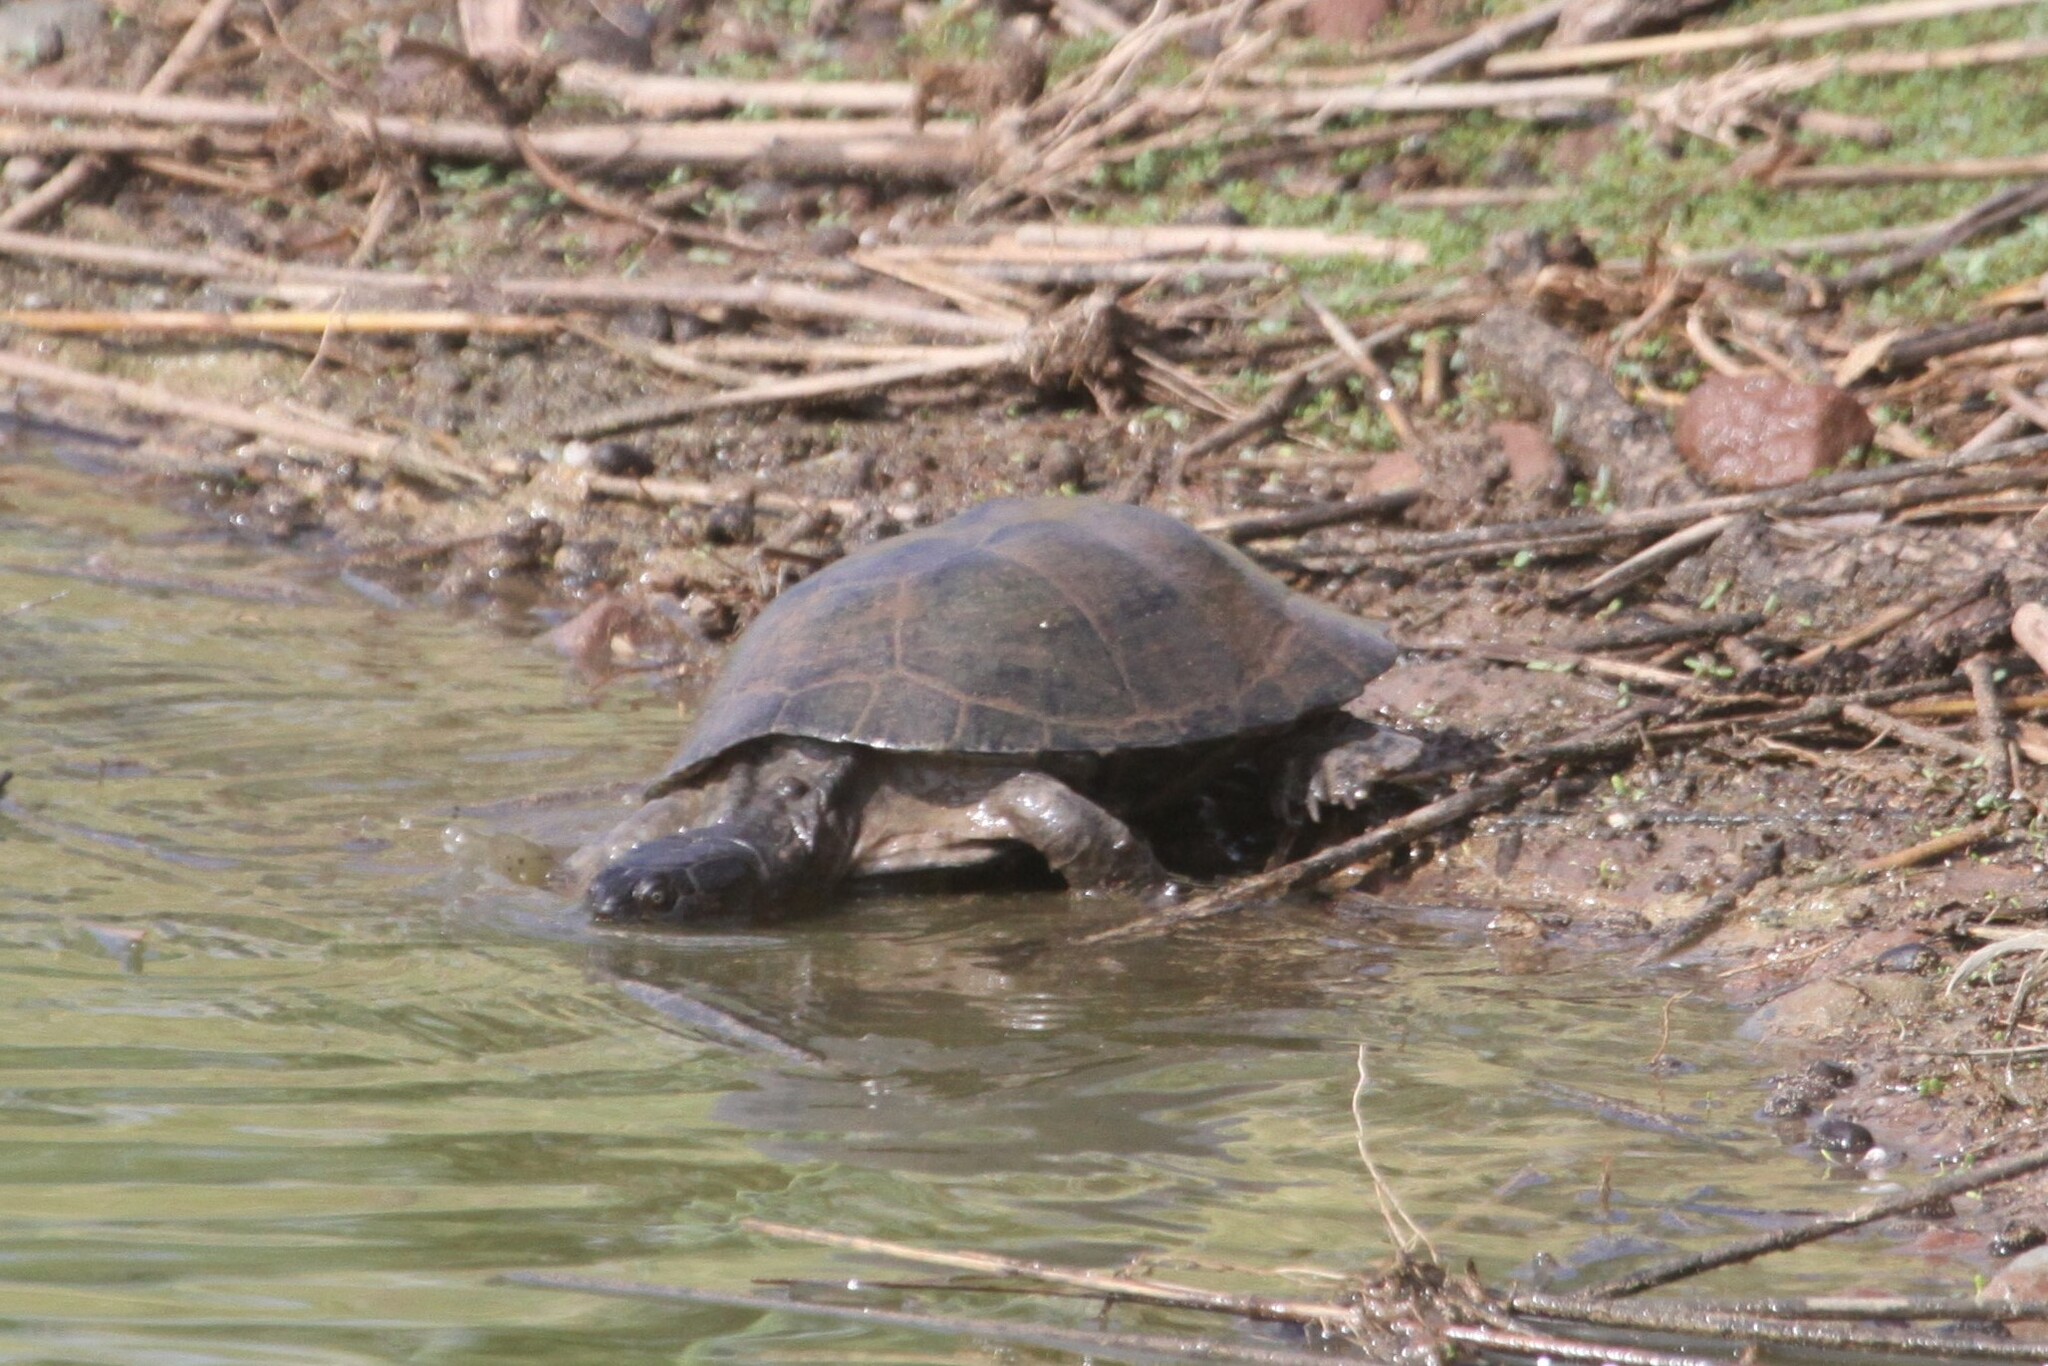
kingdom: Animalia
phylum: Chordata
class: Testudines
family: Pelomedusidae
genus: Pelusios
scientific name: Pelusios sinuatus
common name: Serrated hinged terrapin
